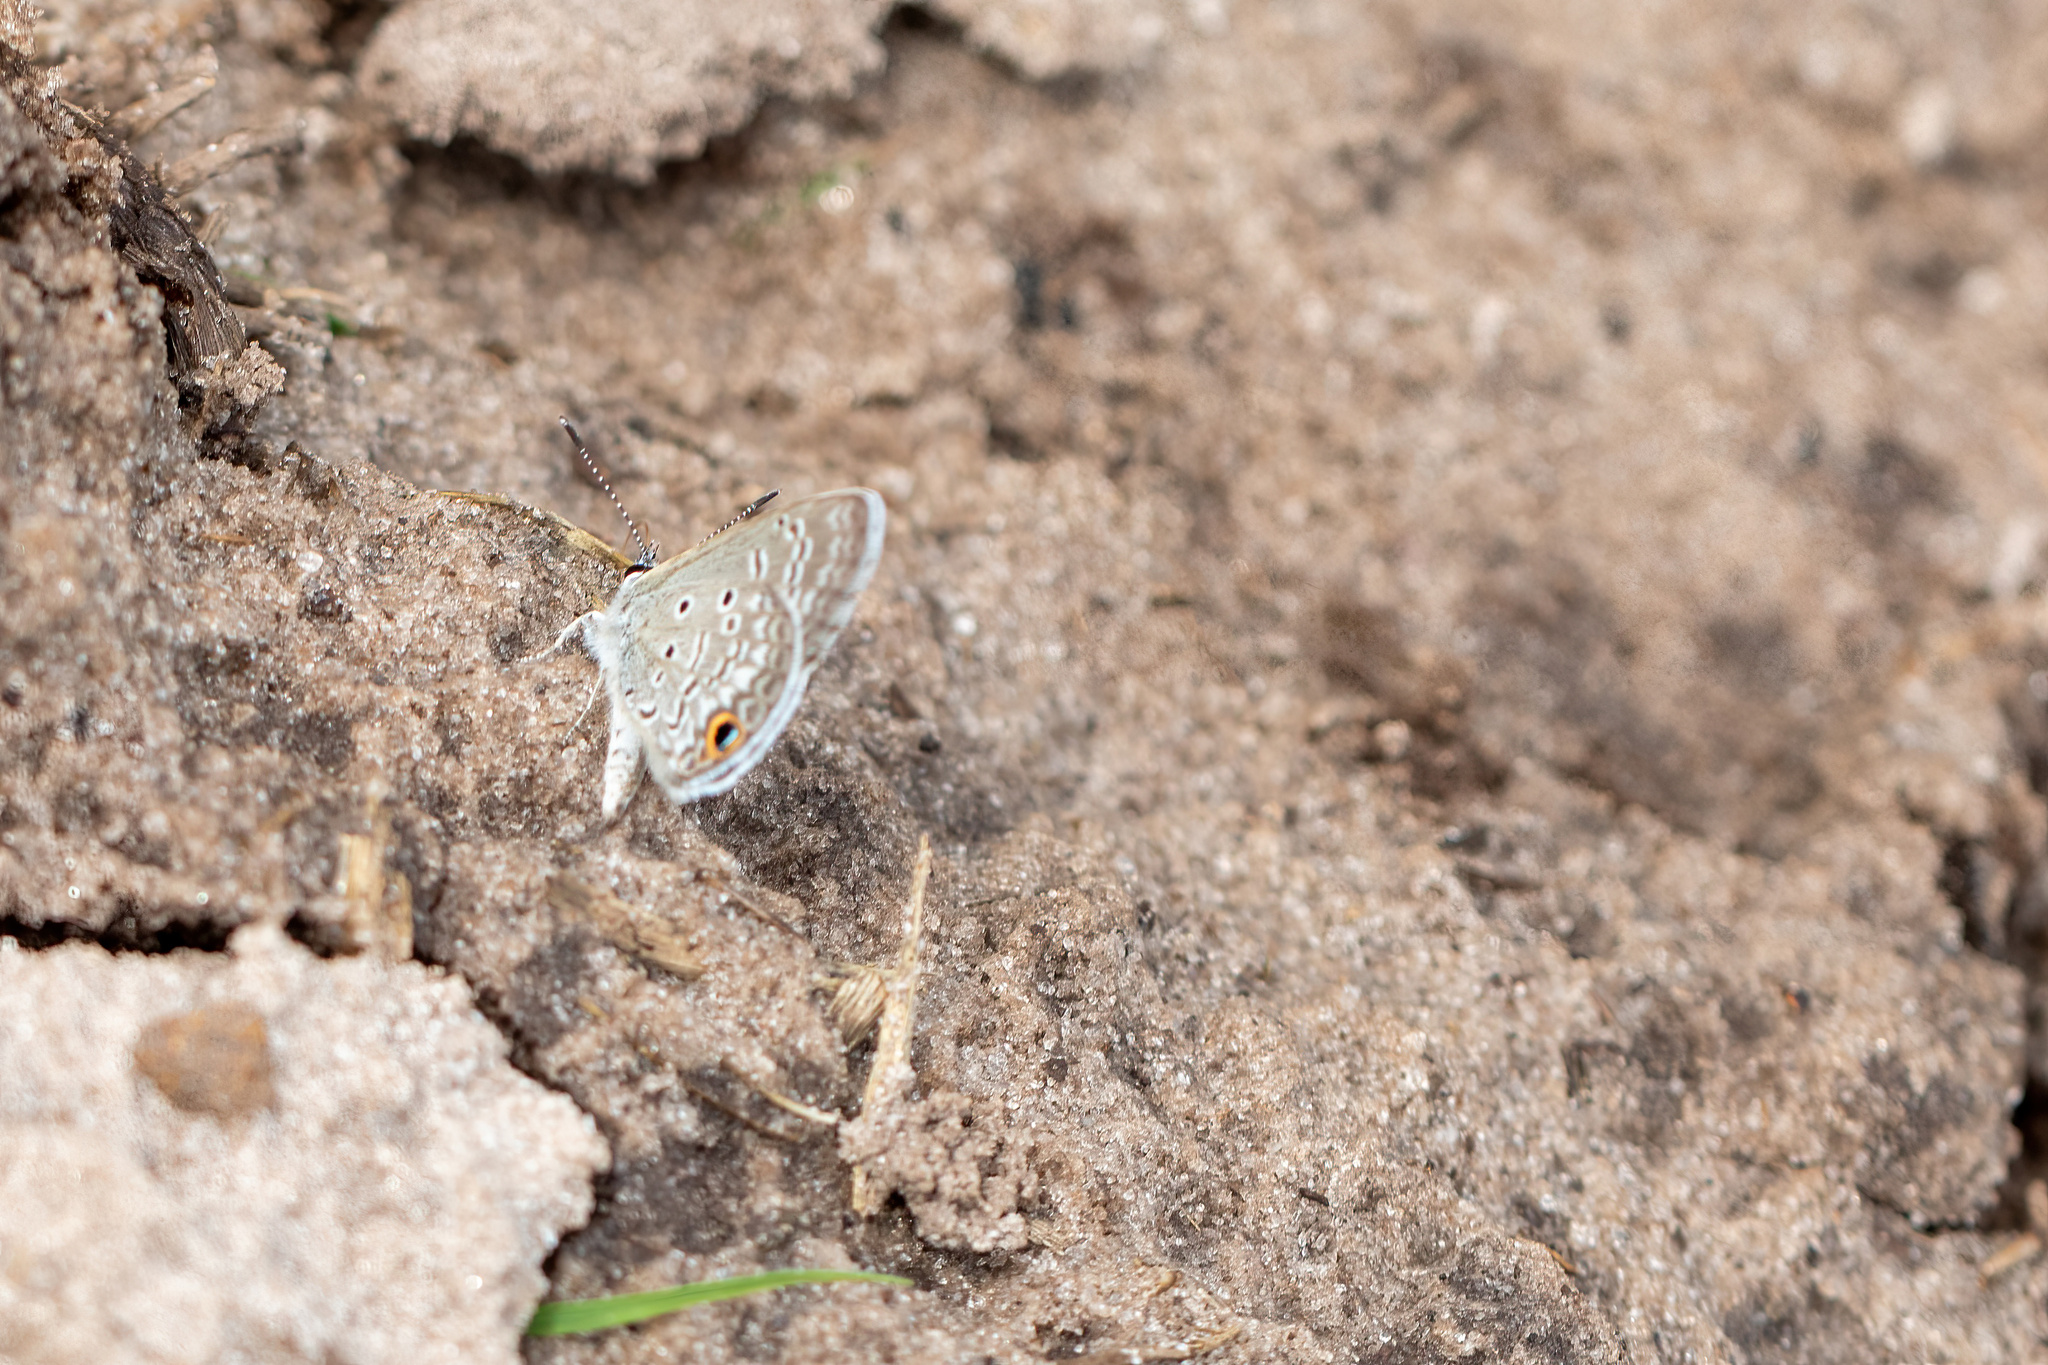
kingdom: Animalia
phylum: Arthropoda
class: Insecta
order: Lepidoptera
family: Lycaenidae
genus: Hemiargus
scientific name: Hemiargus ceraunus
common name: Ceraunus blue
